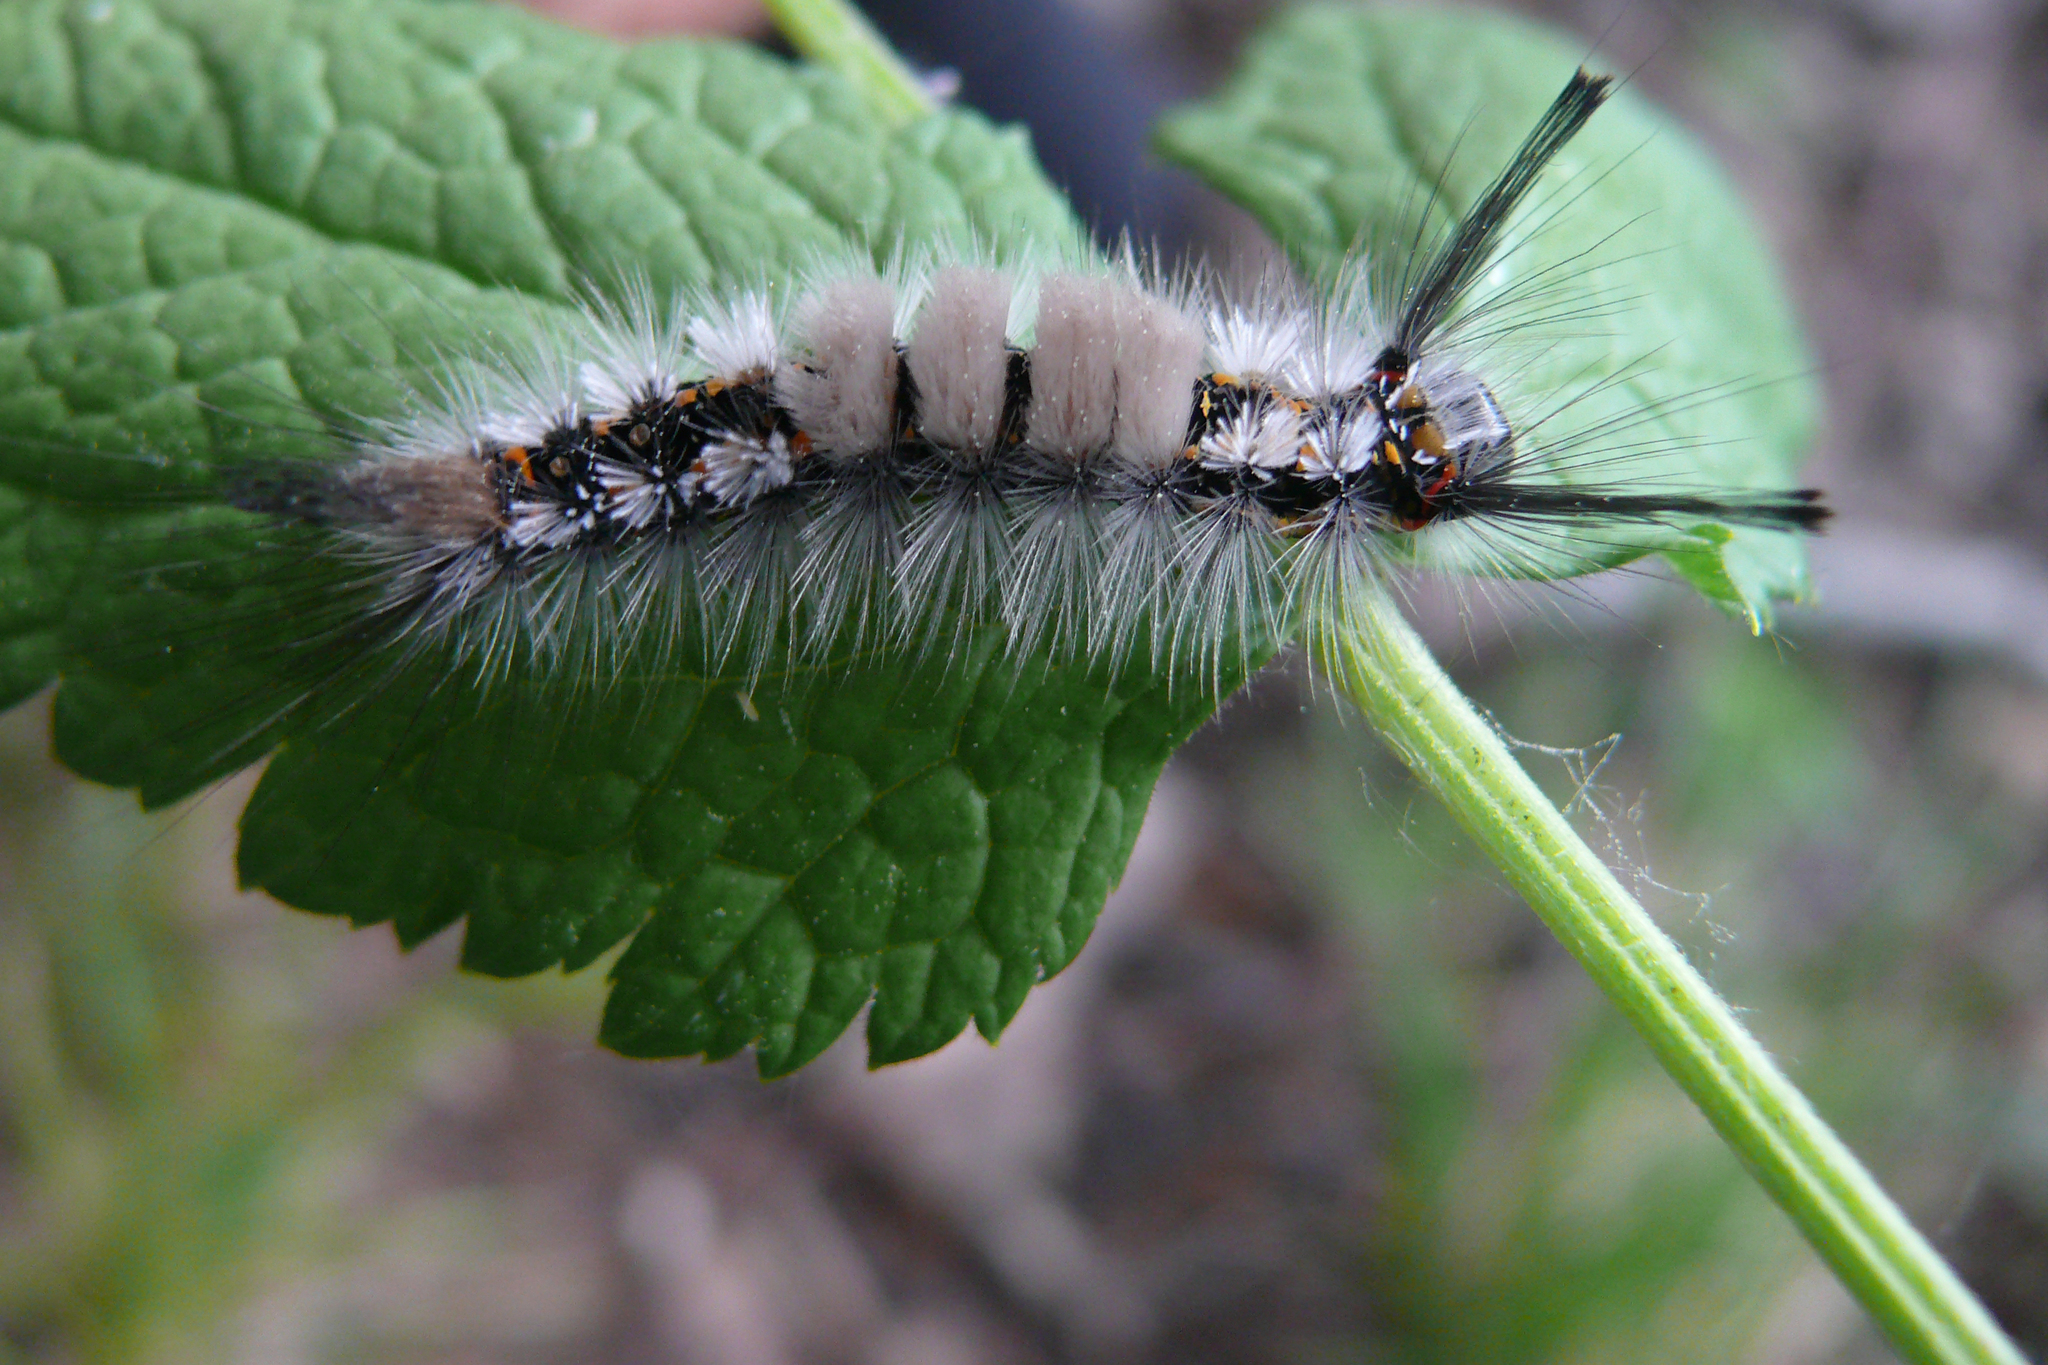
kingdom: Animalia
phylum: Arthropoda
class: Insecta
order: Lepidoptera
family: Erebidae
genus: Orgyia
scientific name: Orgyia recens
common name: Scarce vapourer
